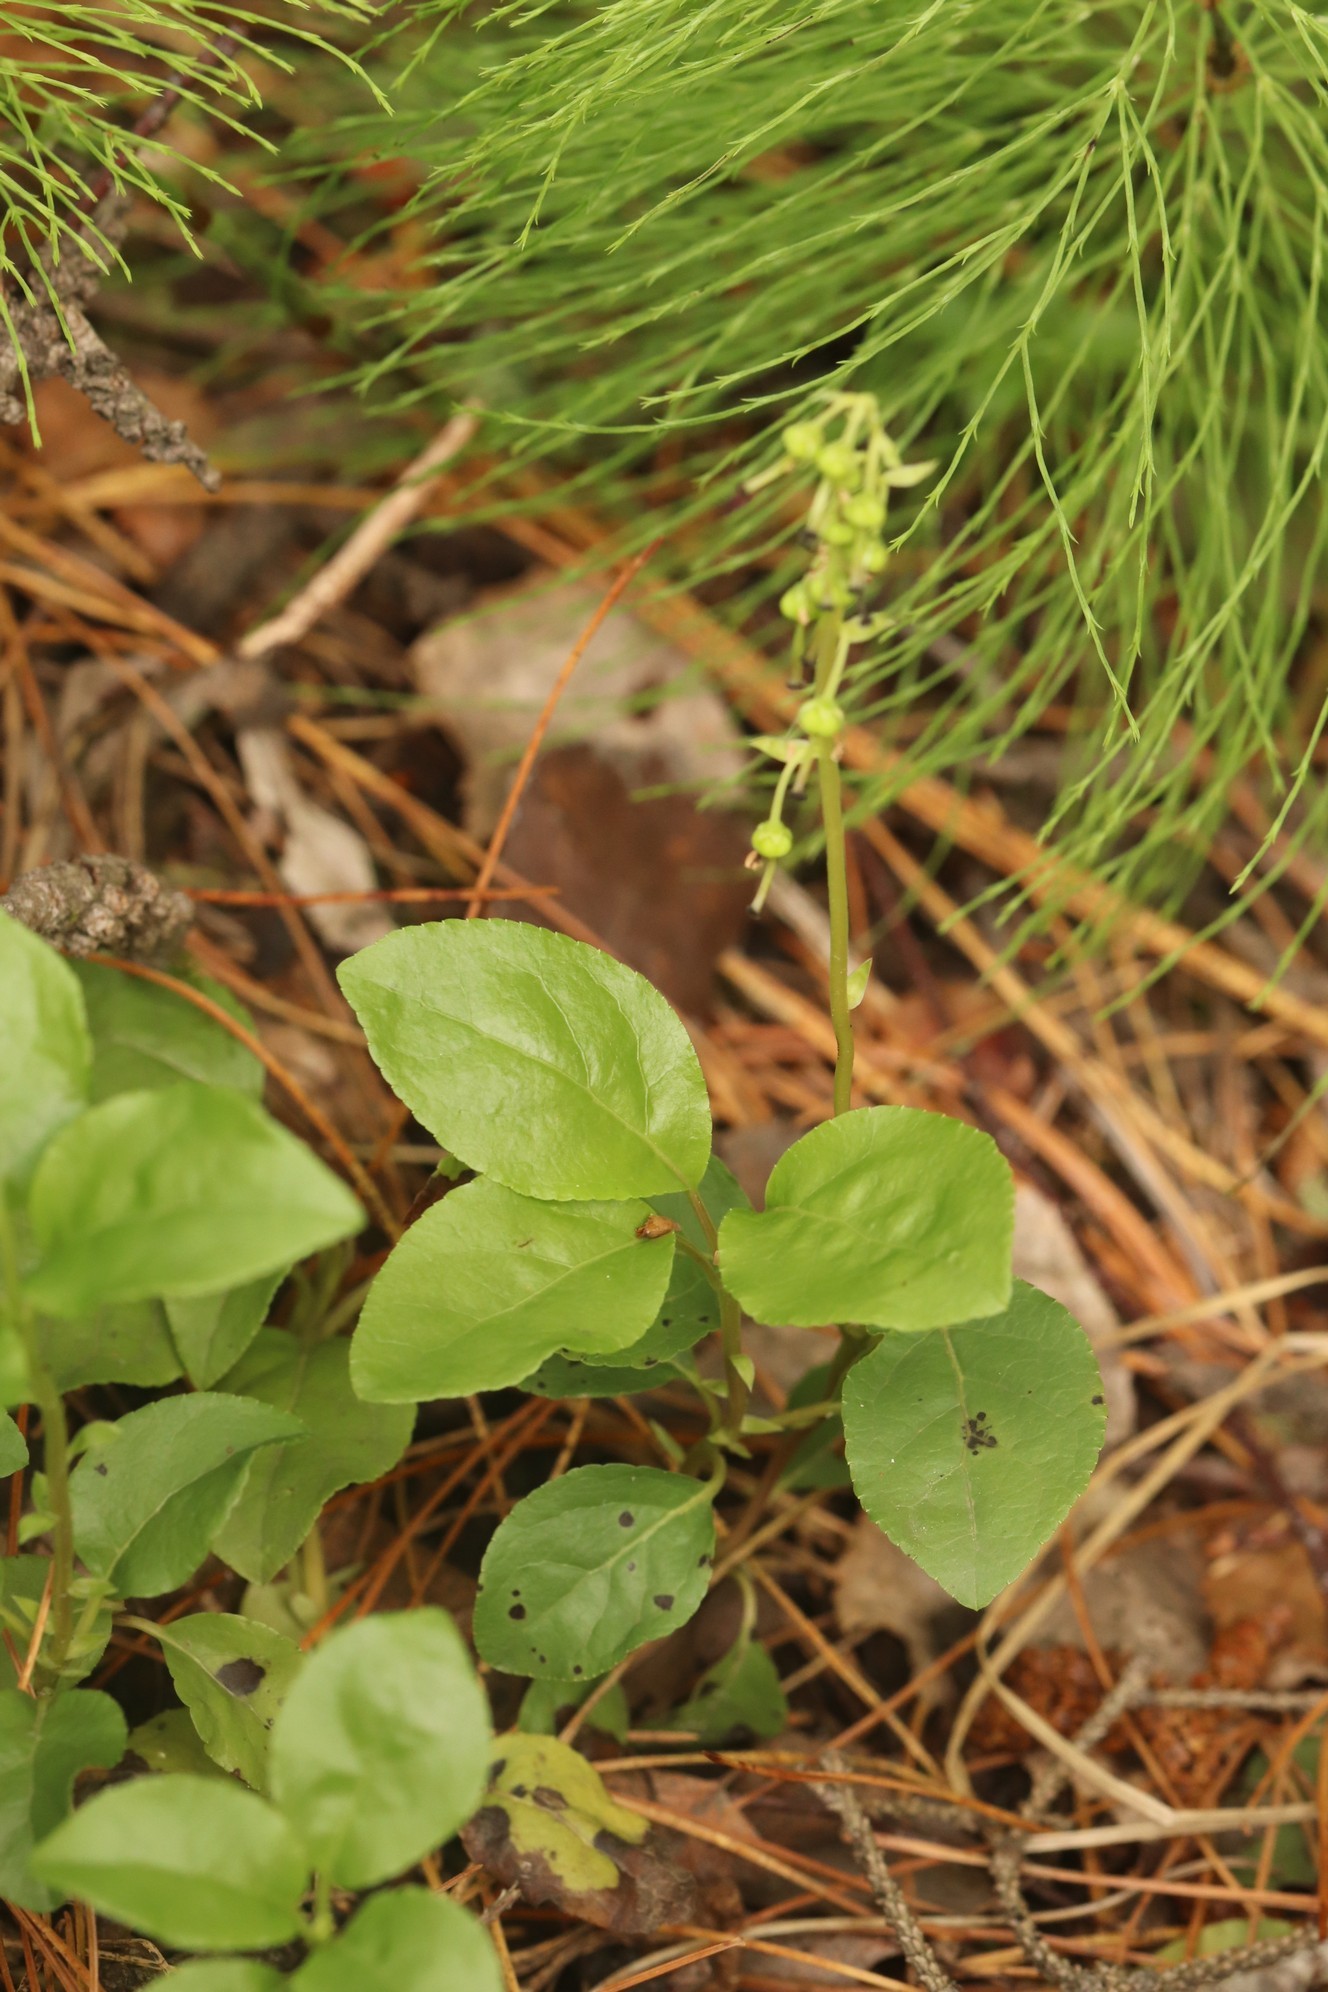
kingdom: Plantae
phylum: Tracheophyta
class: Magnoliopsida
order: Ericales
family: Ericaceae
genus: Orthilia
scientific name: Orthilia secunda
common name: One-sided orthilia
